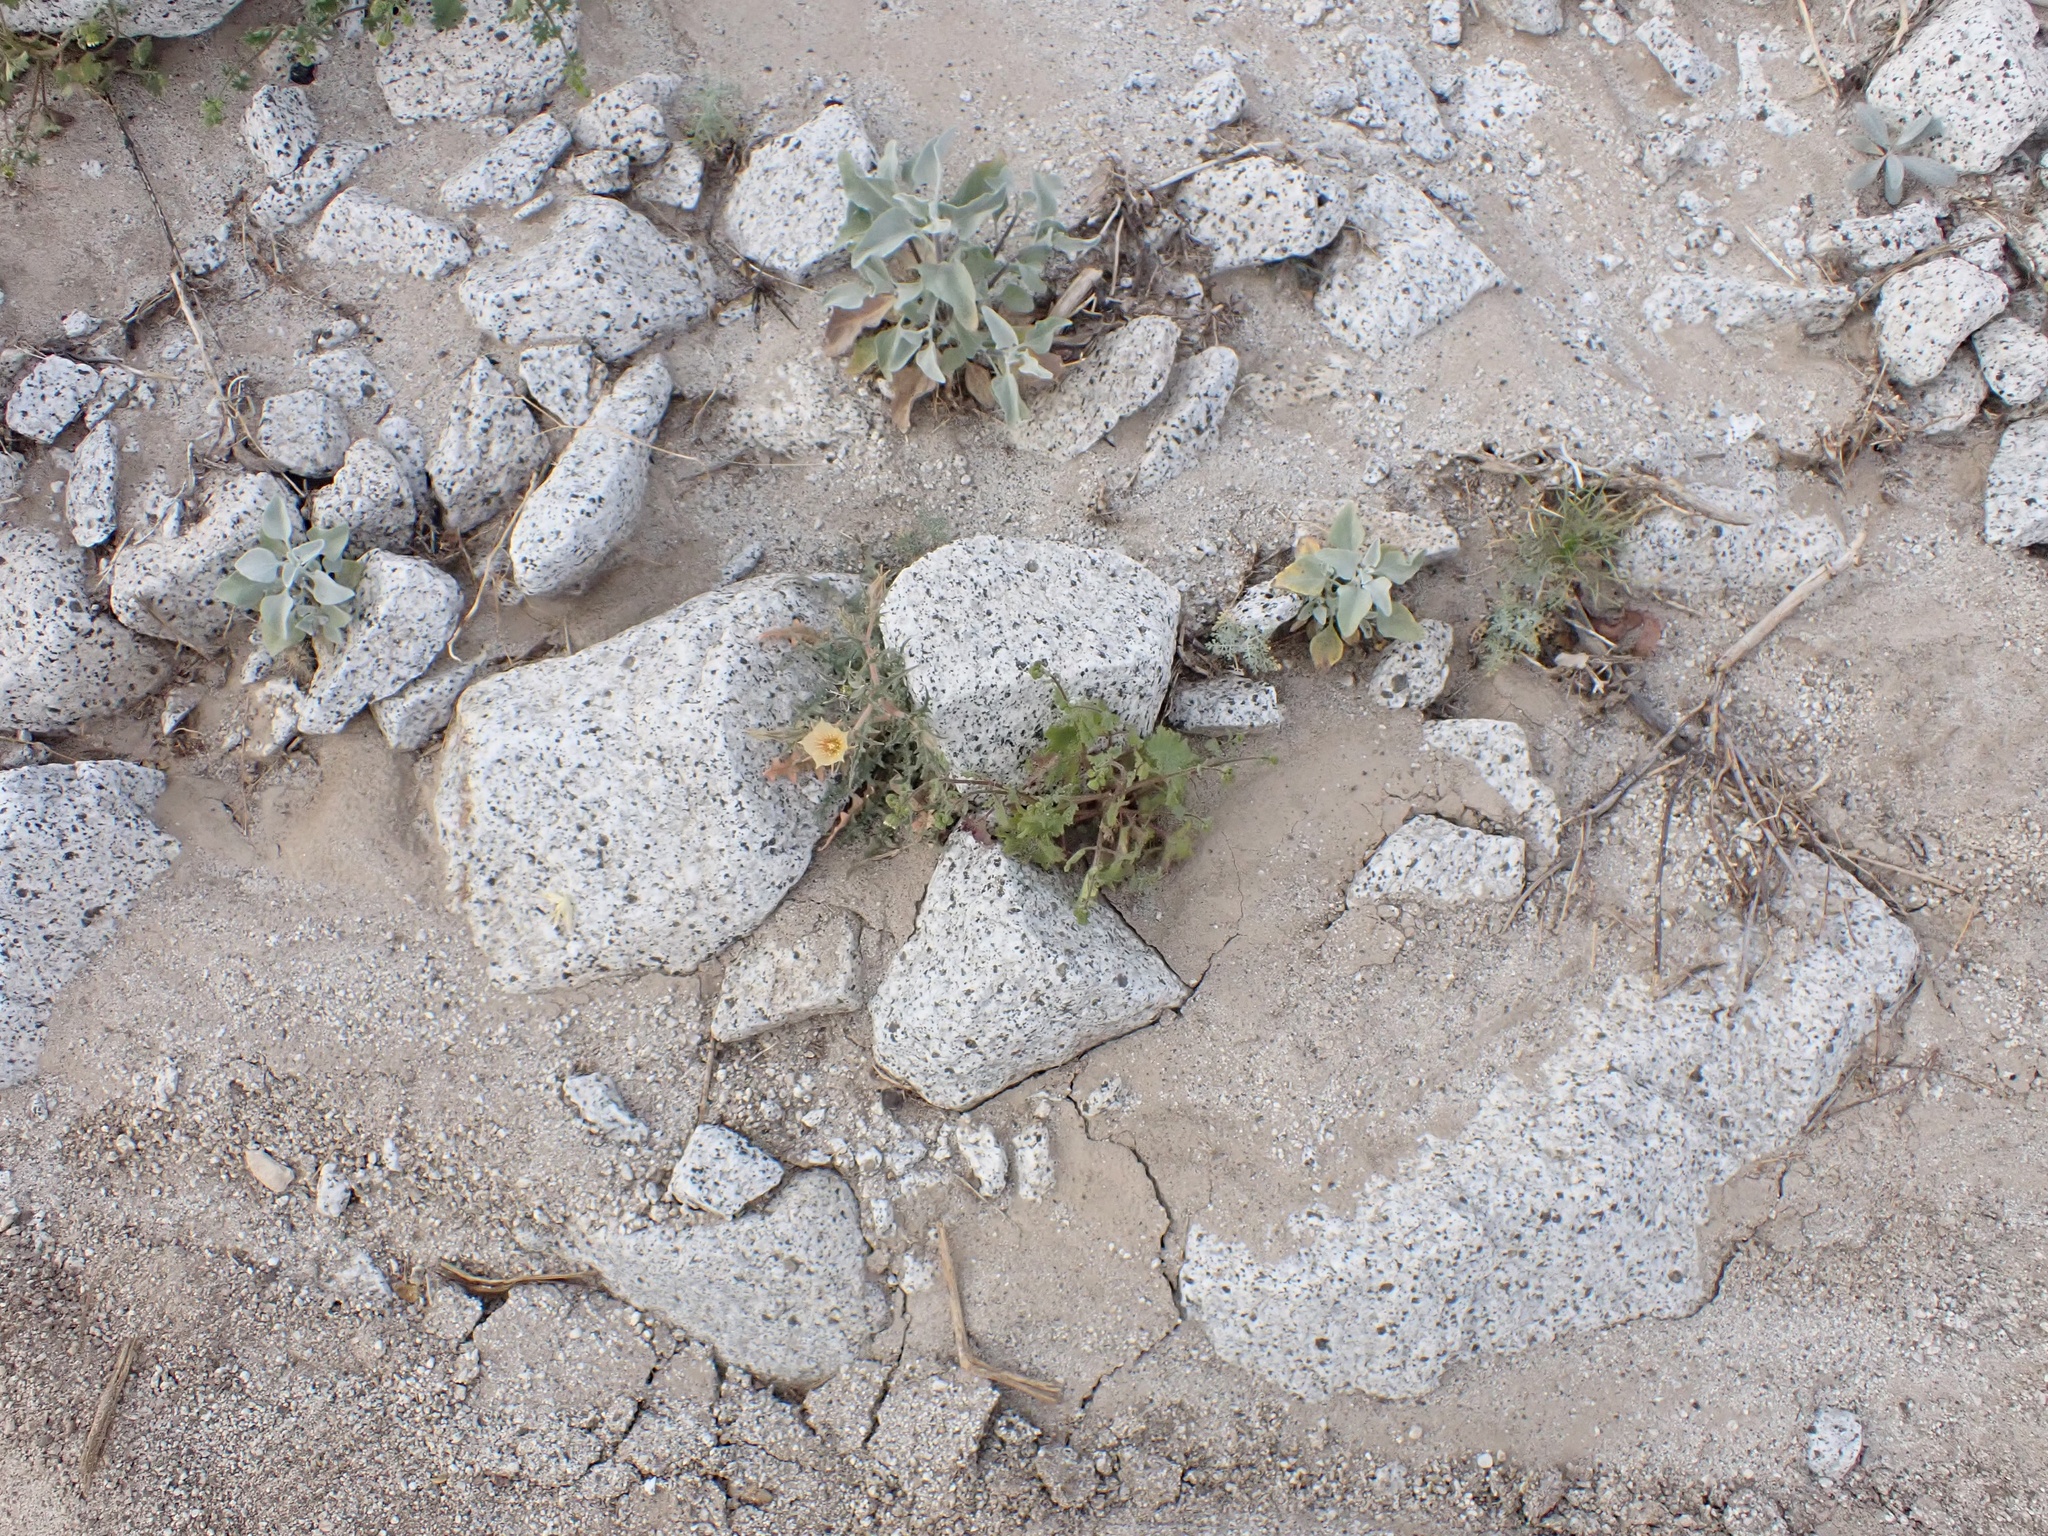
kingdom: Plantae
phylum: Tracheophyta
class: Magnoliopsida
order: Cornales
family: Loasaceae
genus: Mentzelia
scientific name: Mentzelia hirsutissima
